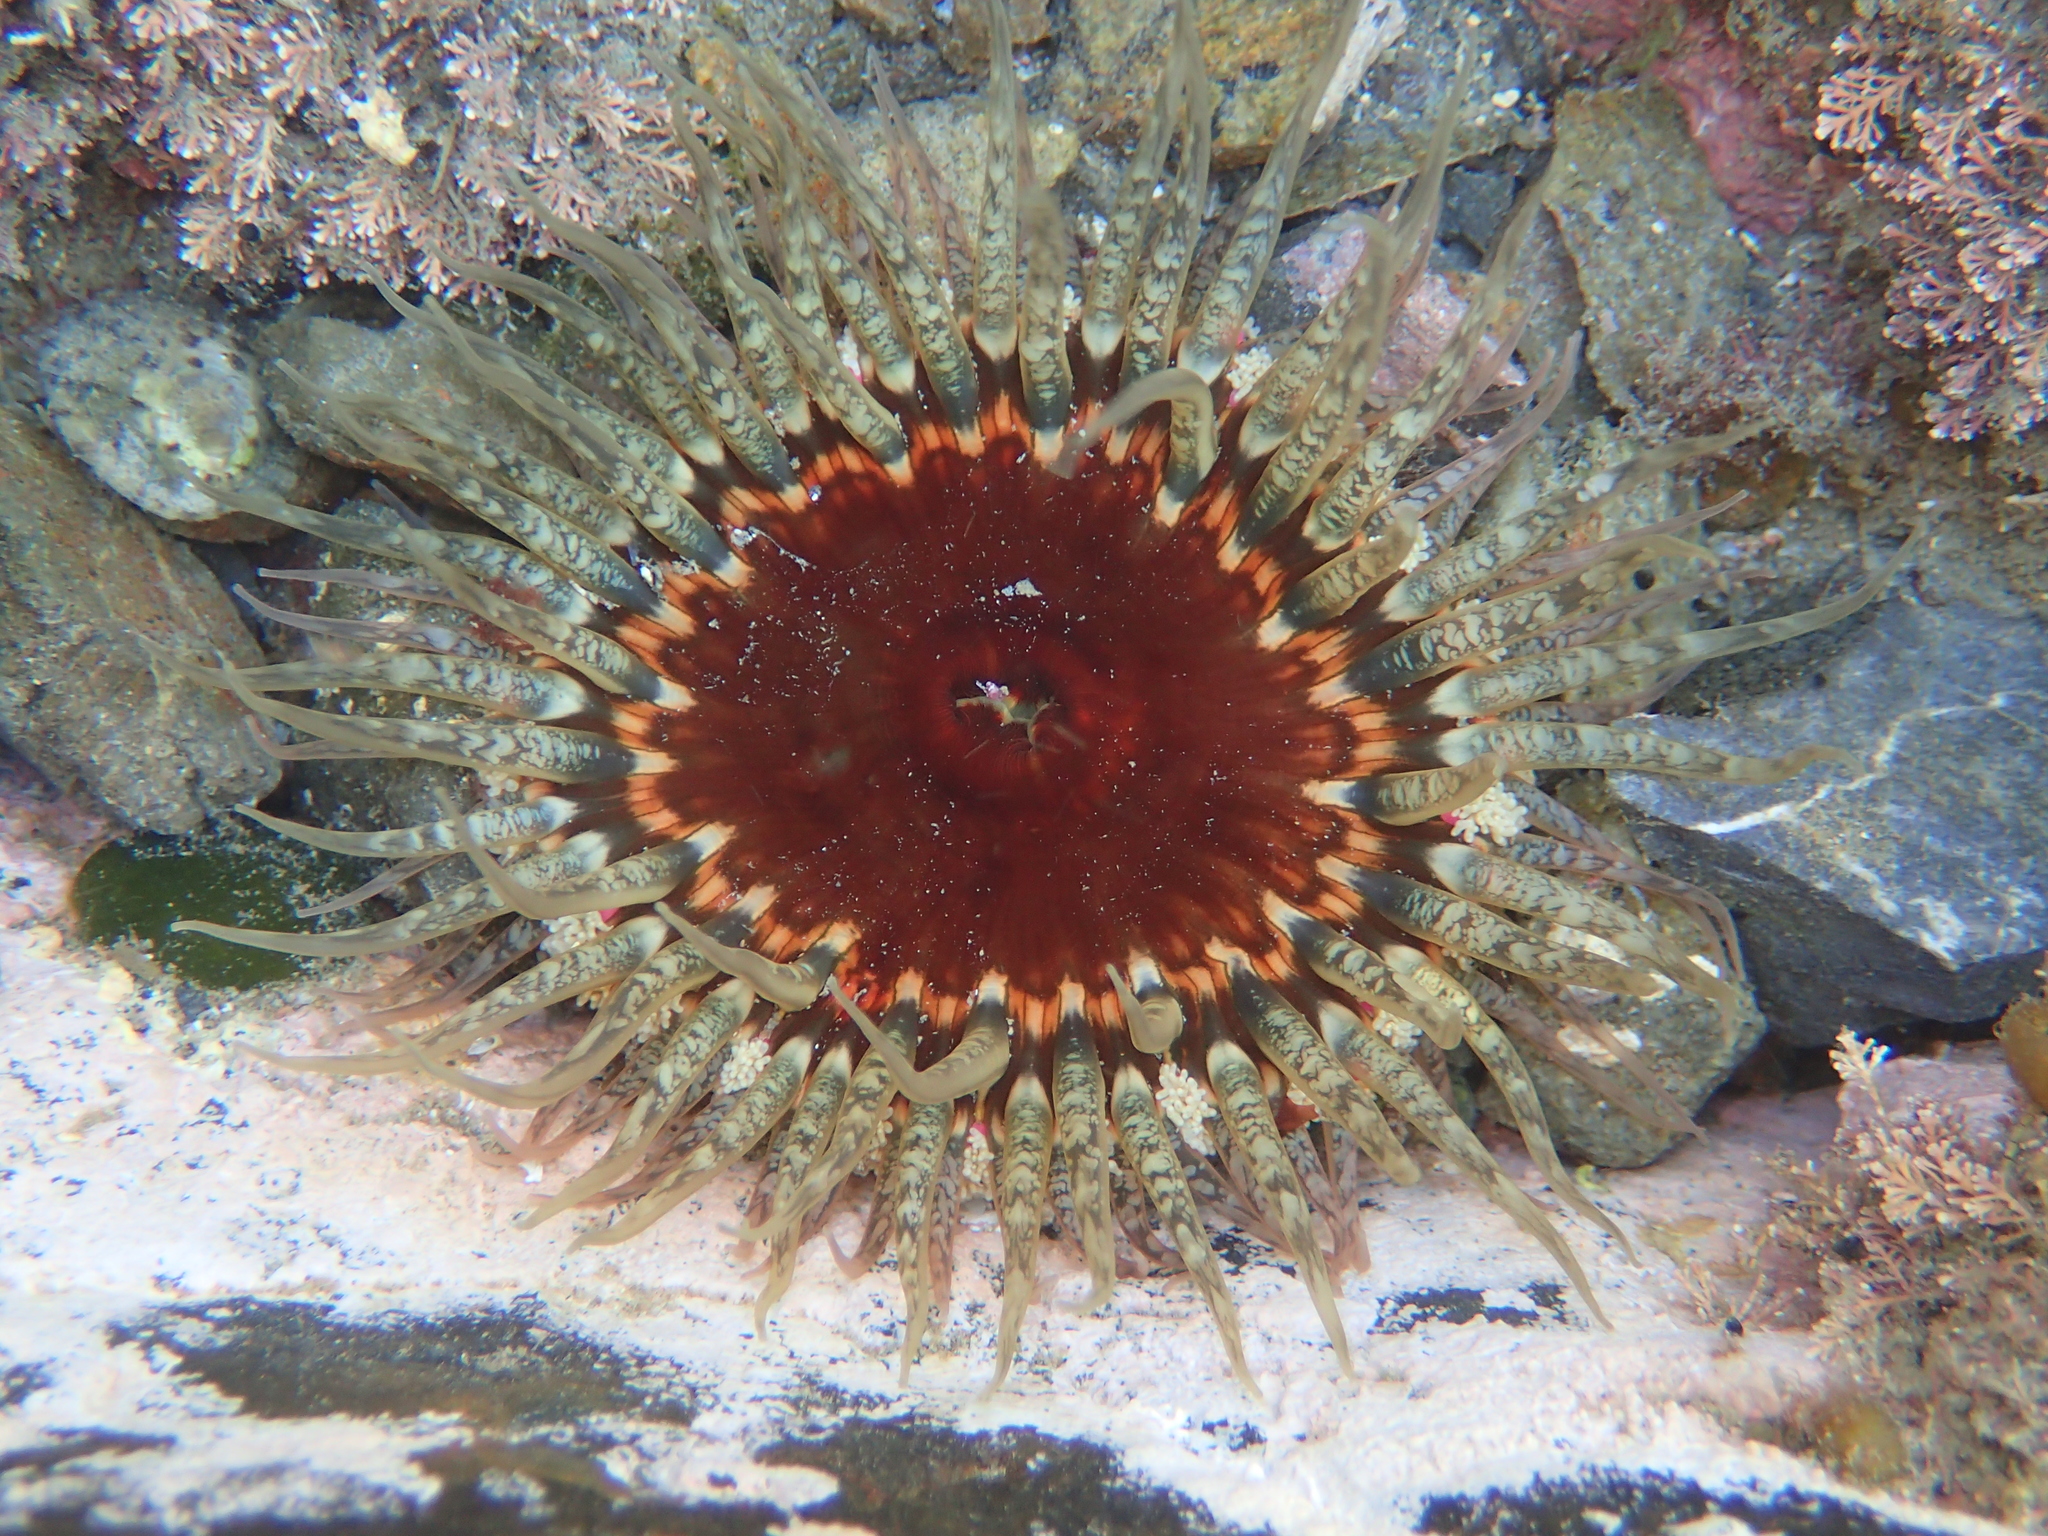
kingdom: Animalia
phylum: Cnidaria
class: Anthozoa
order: Actiniaria
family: Actiniidae
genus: Oulactis
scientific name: Oulactis muscosa
